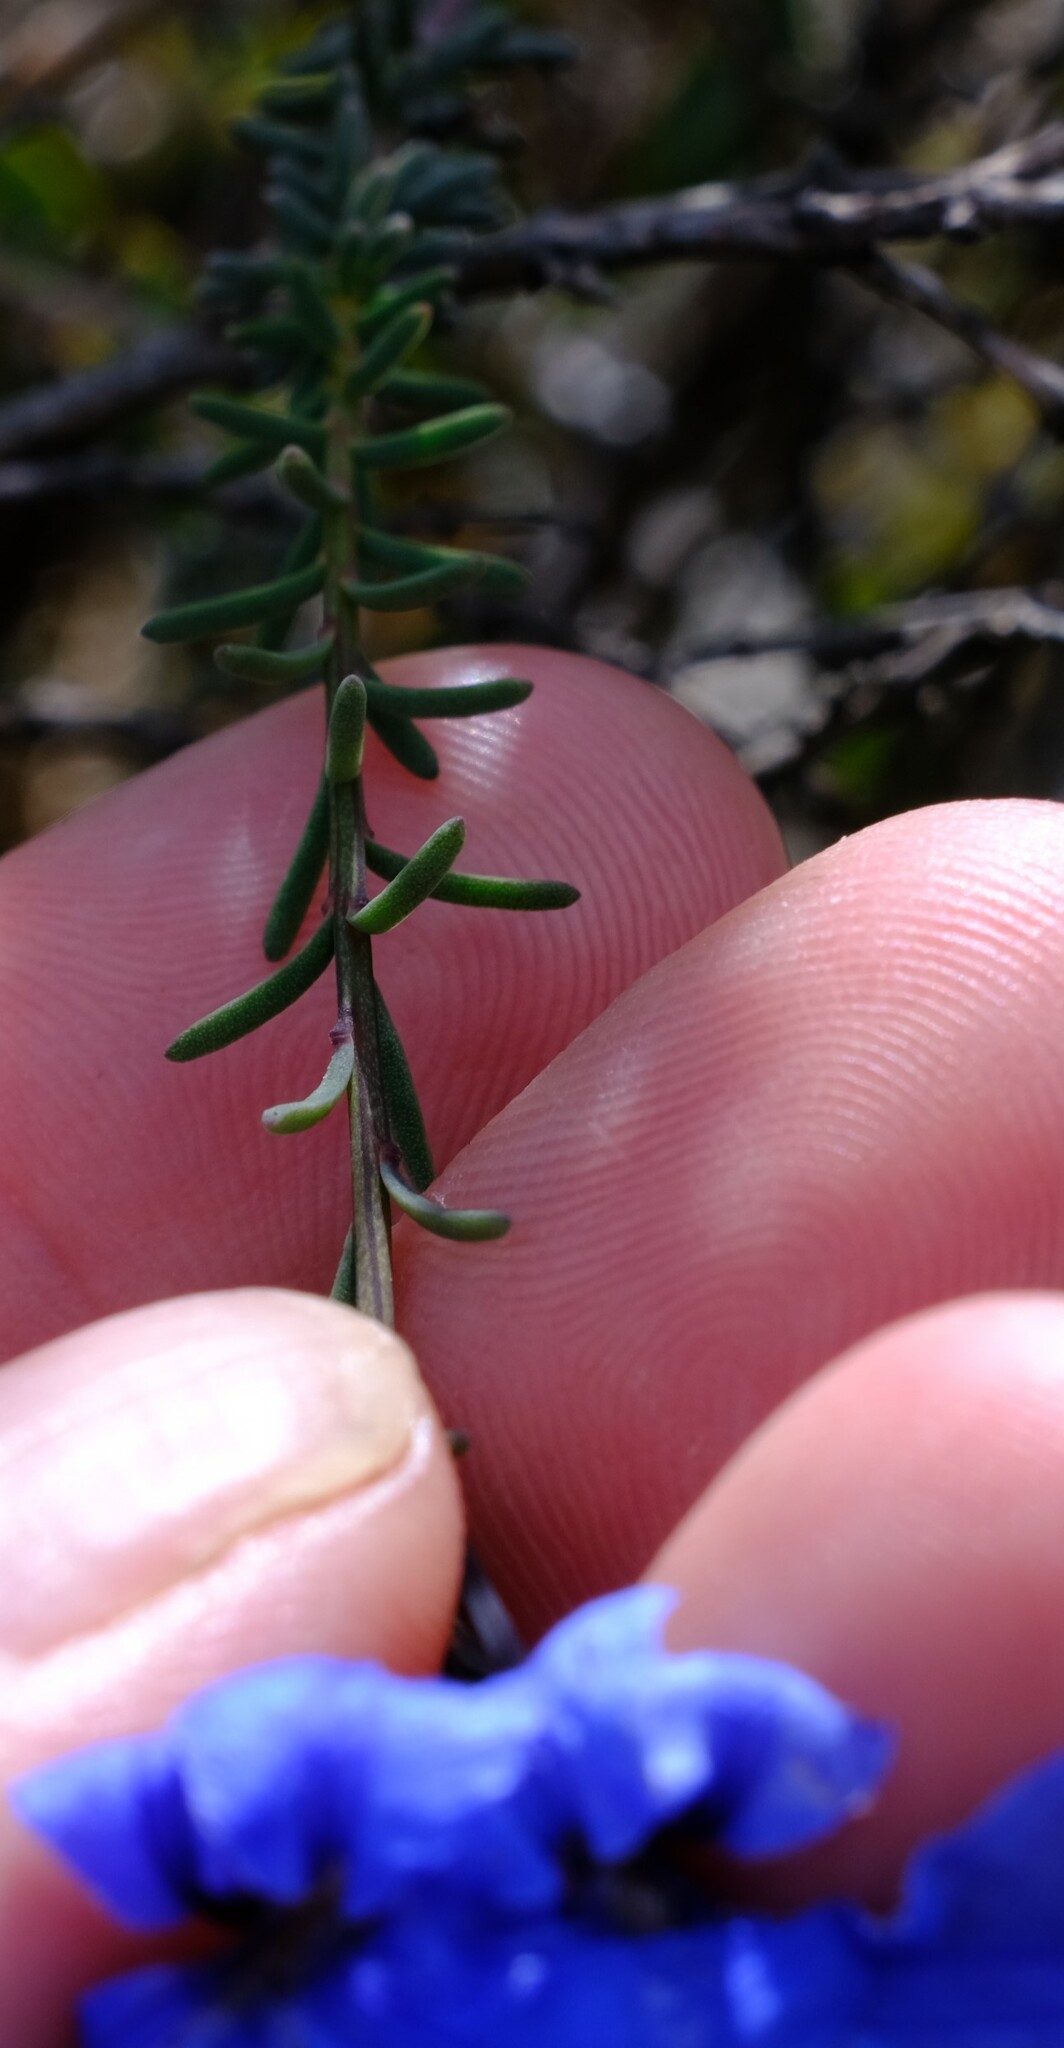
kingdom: Plantae
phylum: Tracheophyta
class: Magnoliopsida
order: Asterales
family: Goodeniaceae
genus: Lechenaultia
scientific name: Lechenaultia biloba
